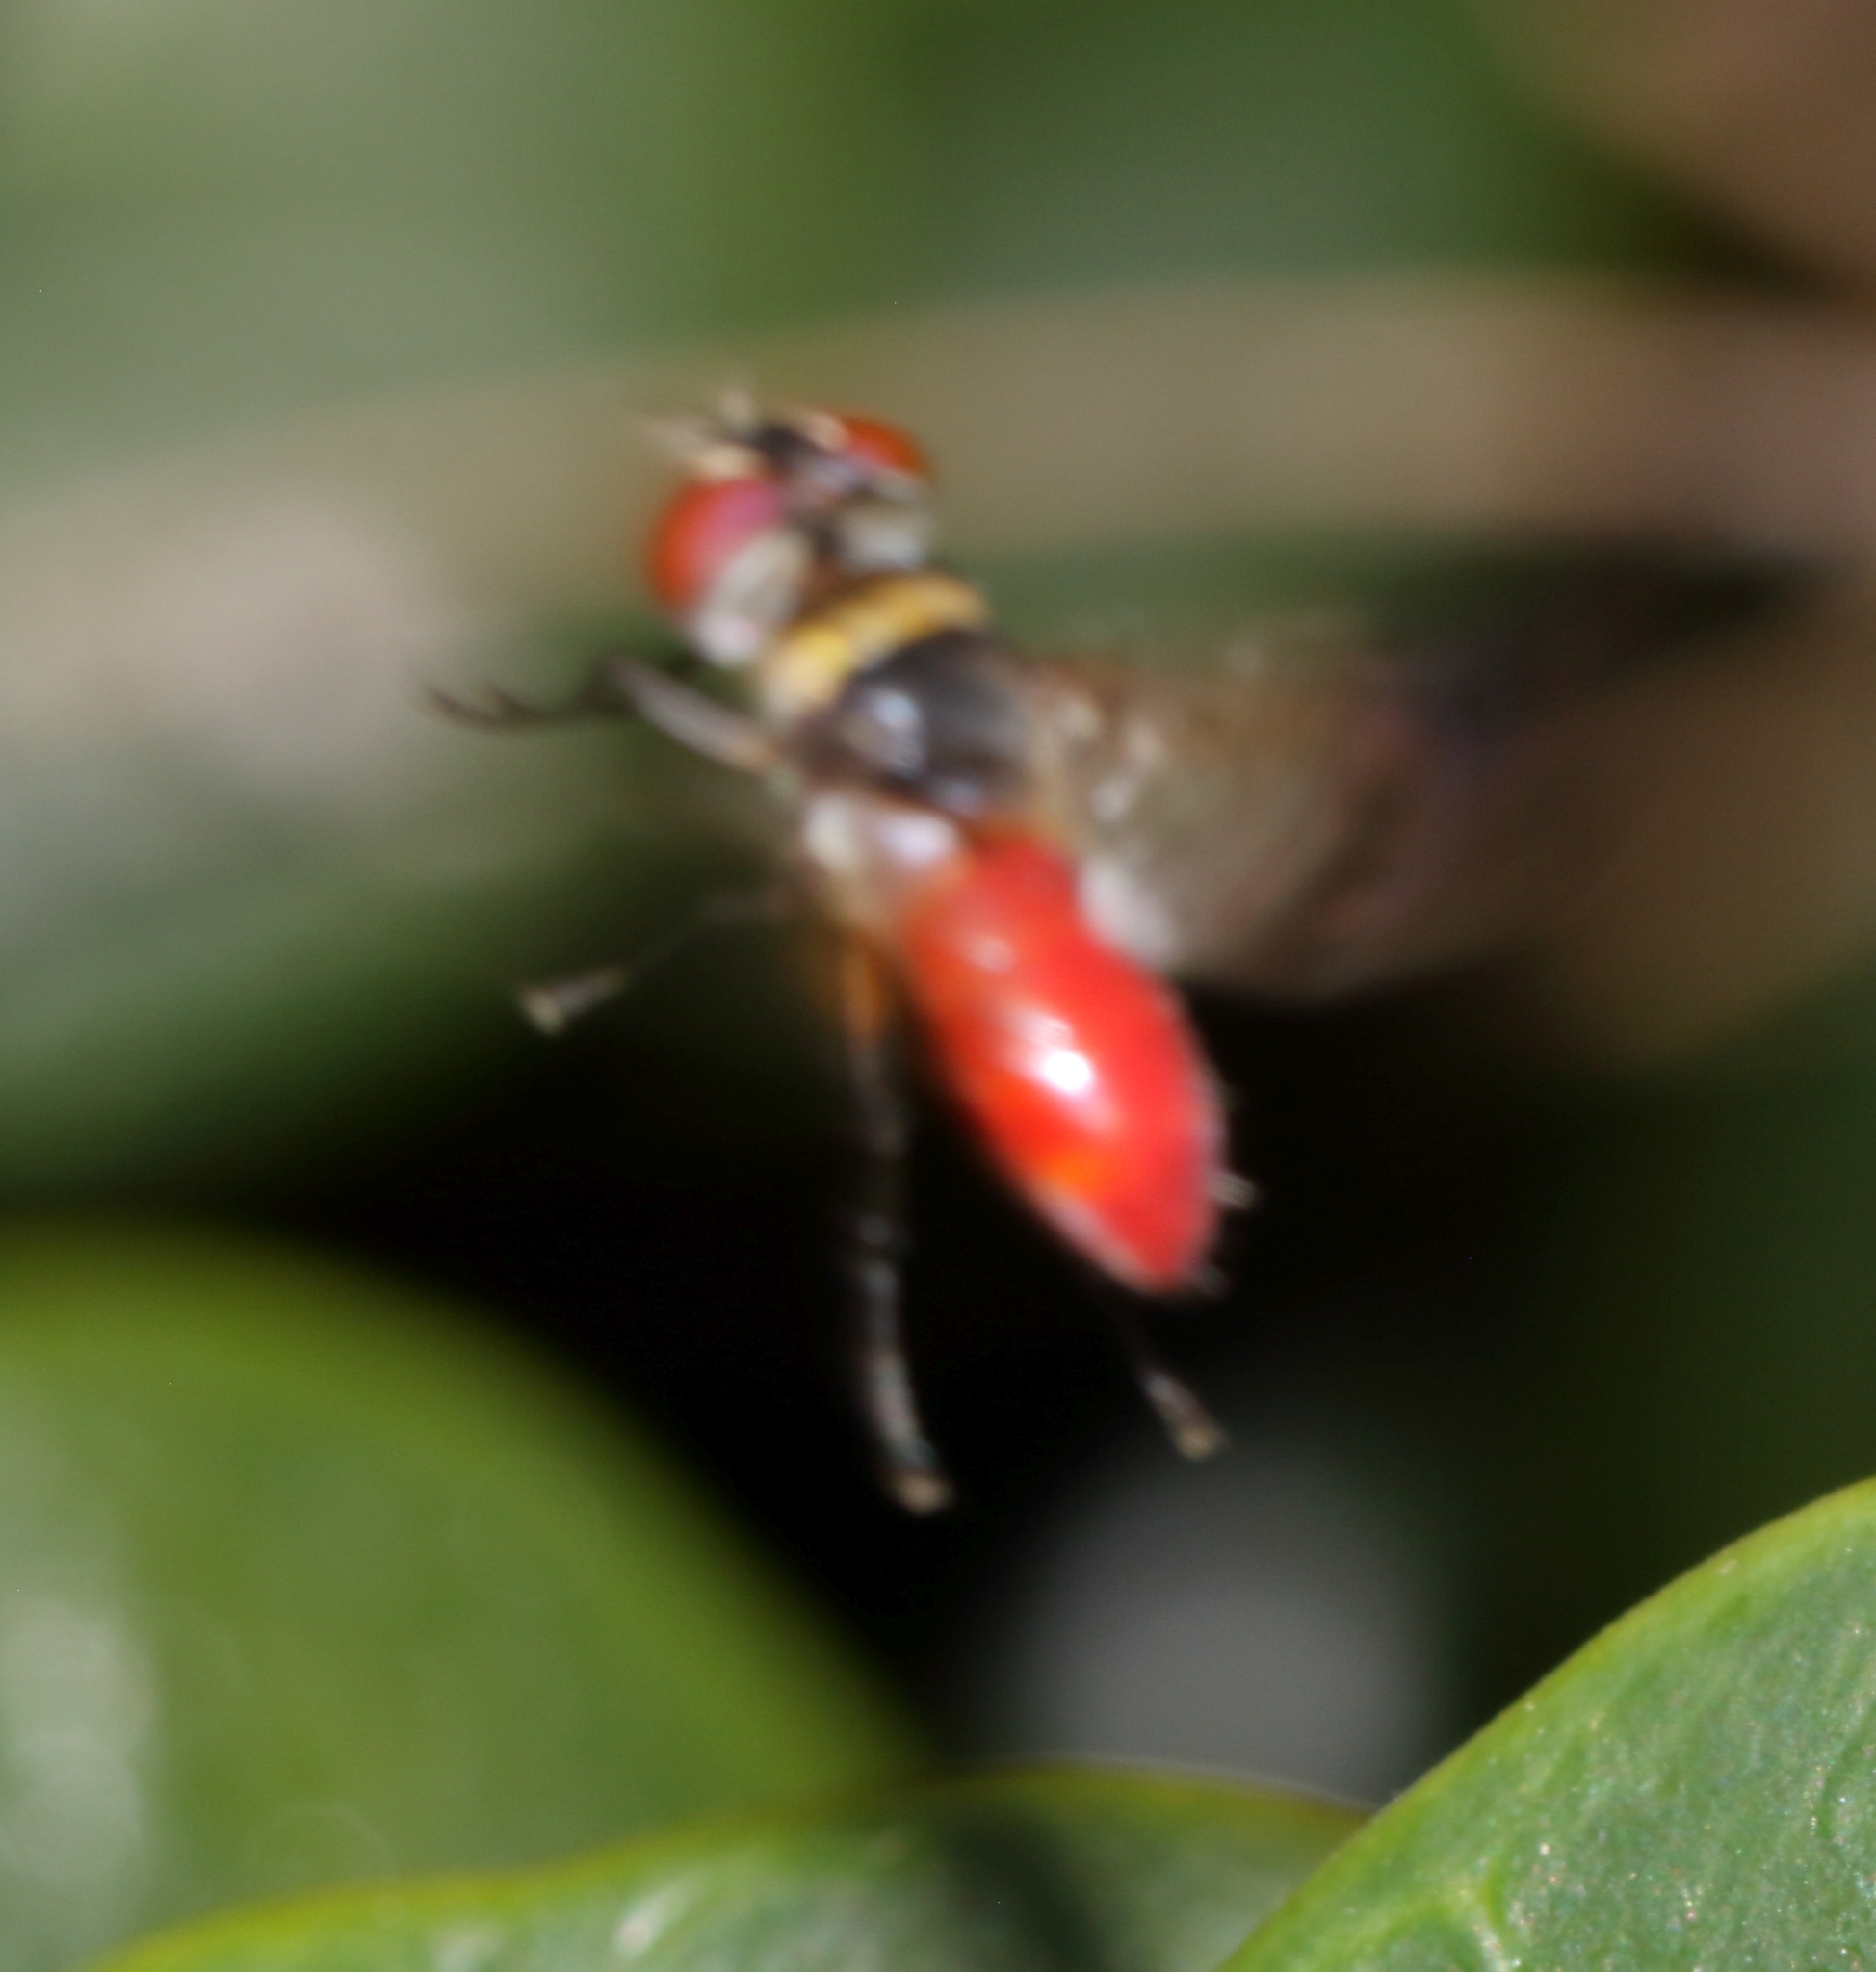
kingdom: Animalia
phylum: Arthropoda
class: Insecta
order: Diptera
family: Tachinidae
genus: Bogosia
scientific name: Bogosia
